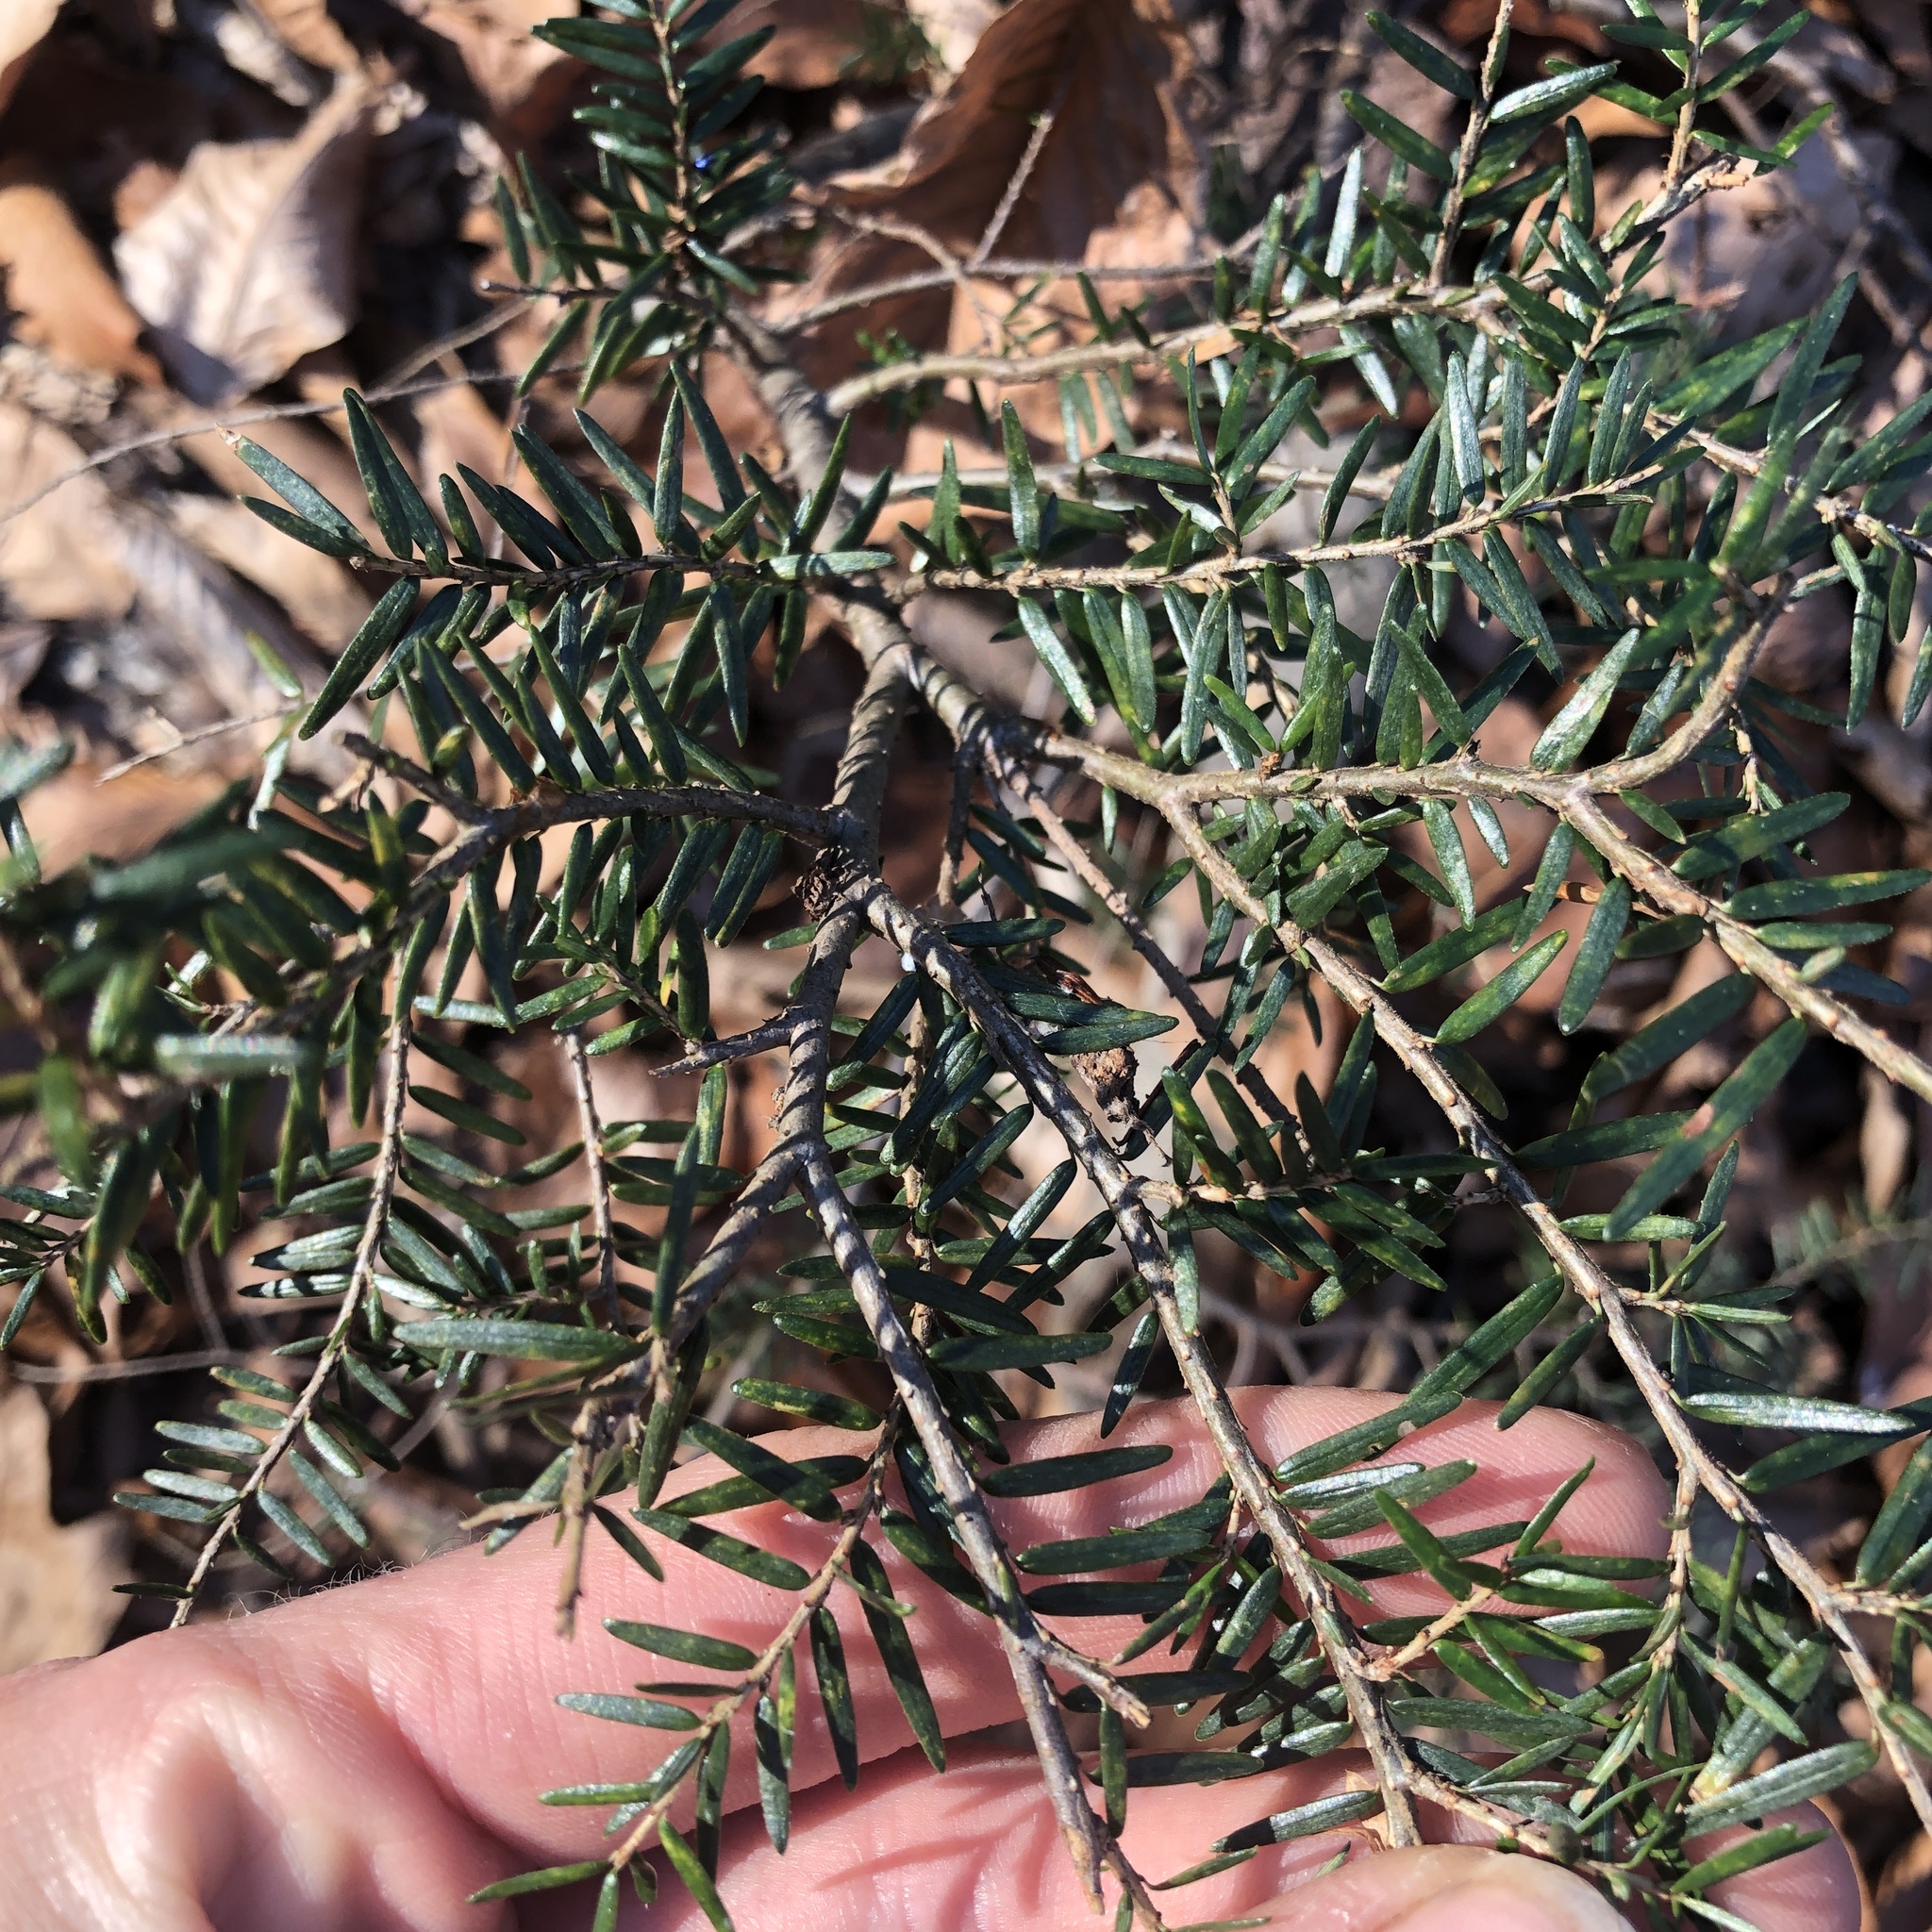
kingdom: Plantae
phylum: Tracheophyta
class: Pinopsida
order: Pinales
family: Pinaceae
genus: Tsuga
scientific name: Tsuga canadensis
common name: Eastern hemlock
